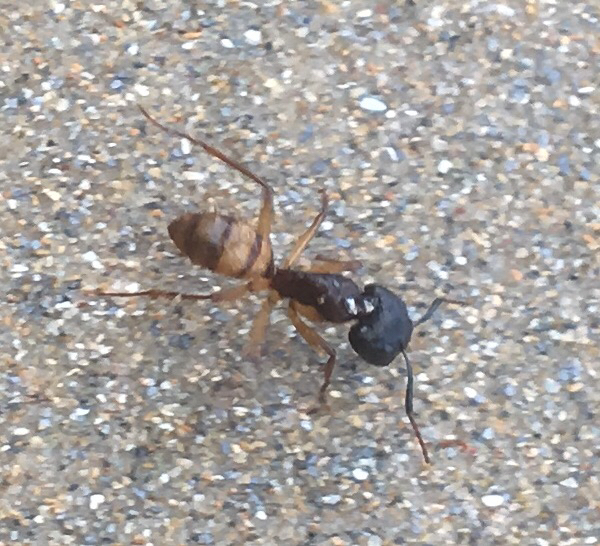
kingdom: Animalia
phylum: Arthropoda
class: Insecta
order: Hymenoptera
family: Formicidae
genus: Camponotus
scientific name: Camponotus atriceps
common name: Florida carpenter ant
